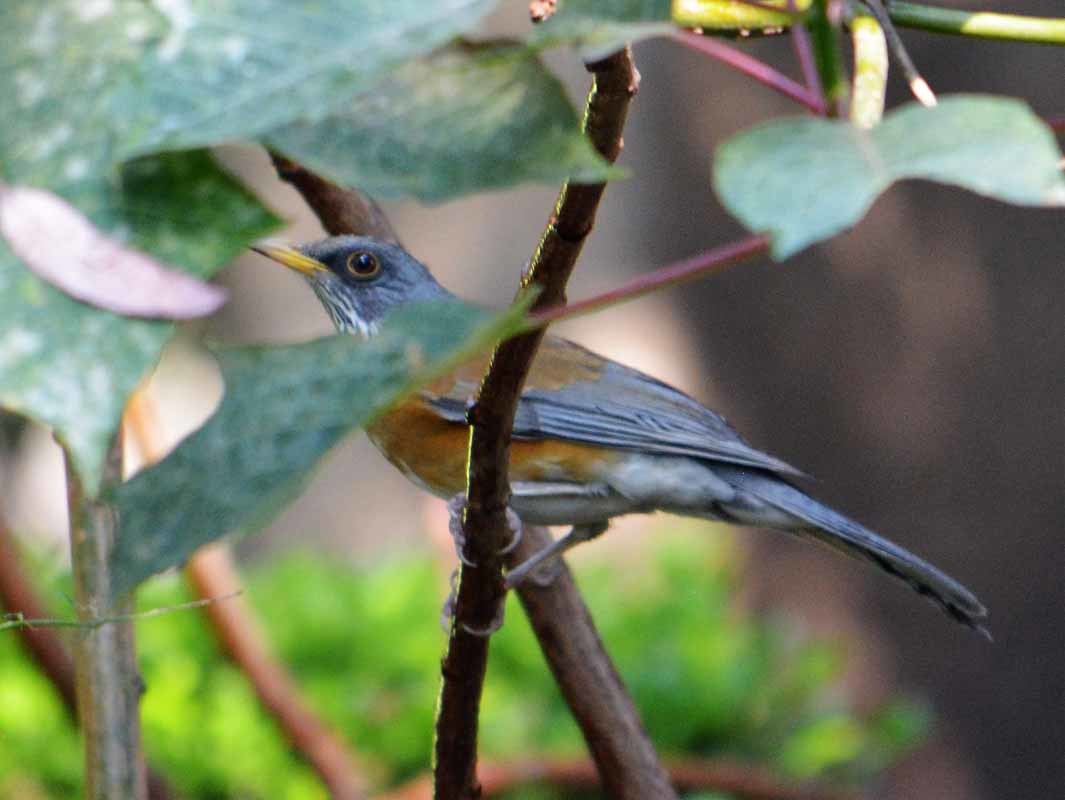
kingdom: Animalia
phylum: Chordata
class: Aves
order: Passeriformes
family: Turdidae
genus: Turdus
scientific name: Turdus rufopalliatus
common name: Rufous-backed robin
